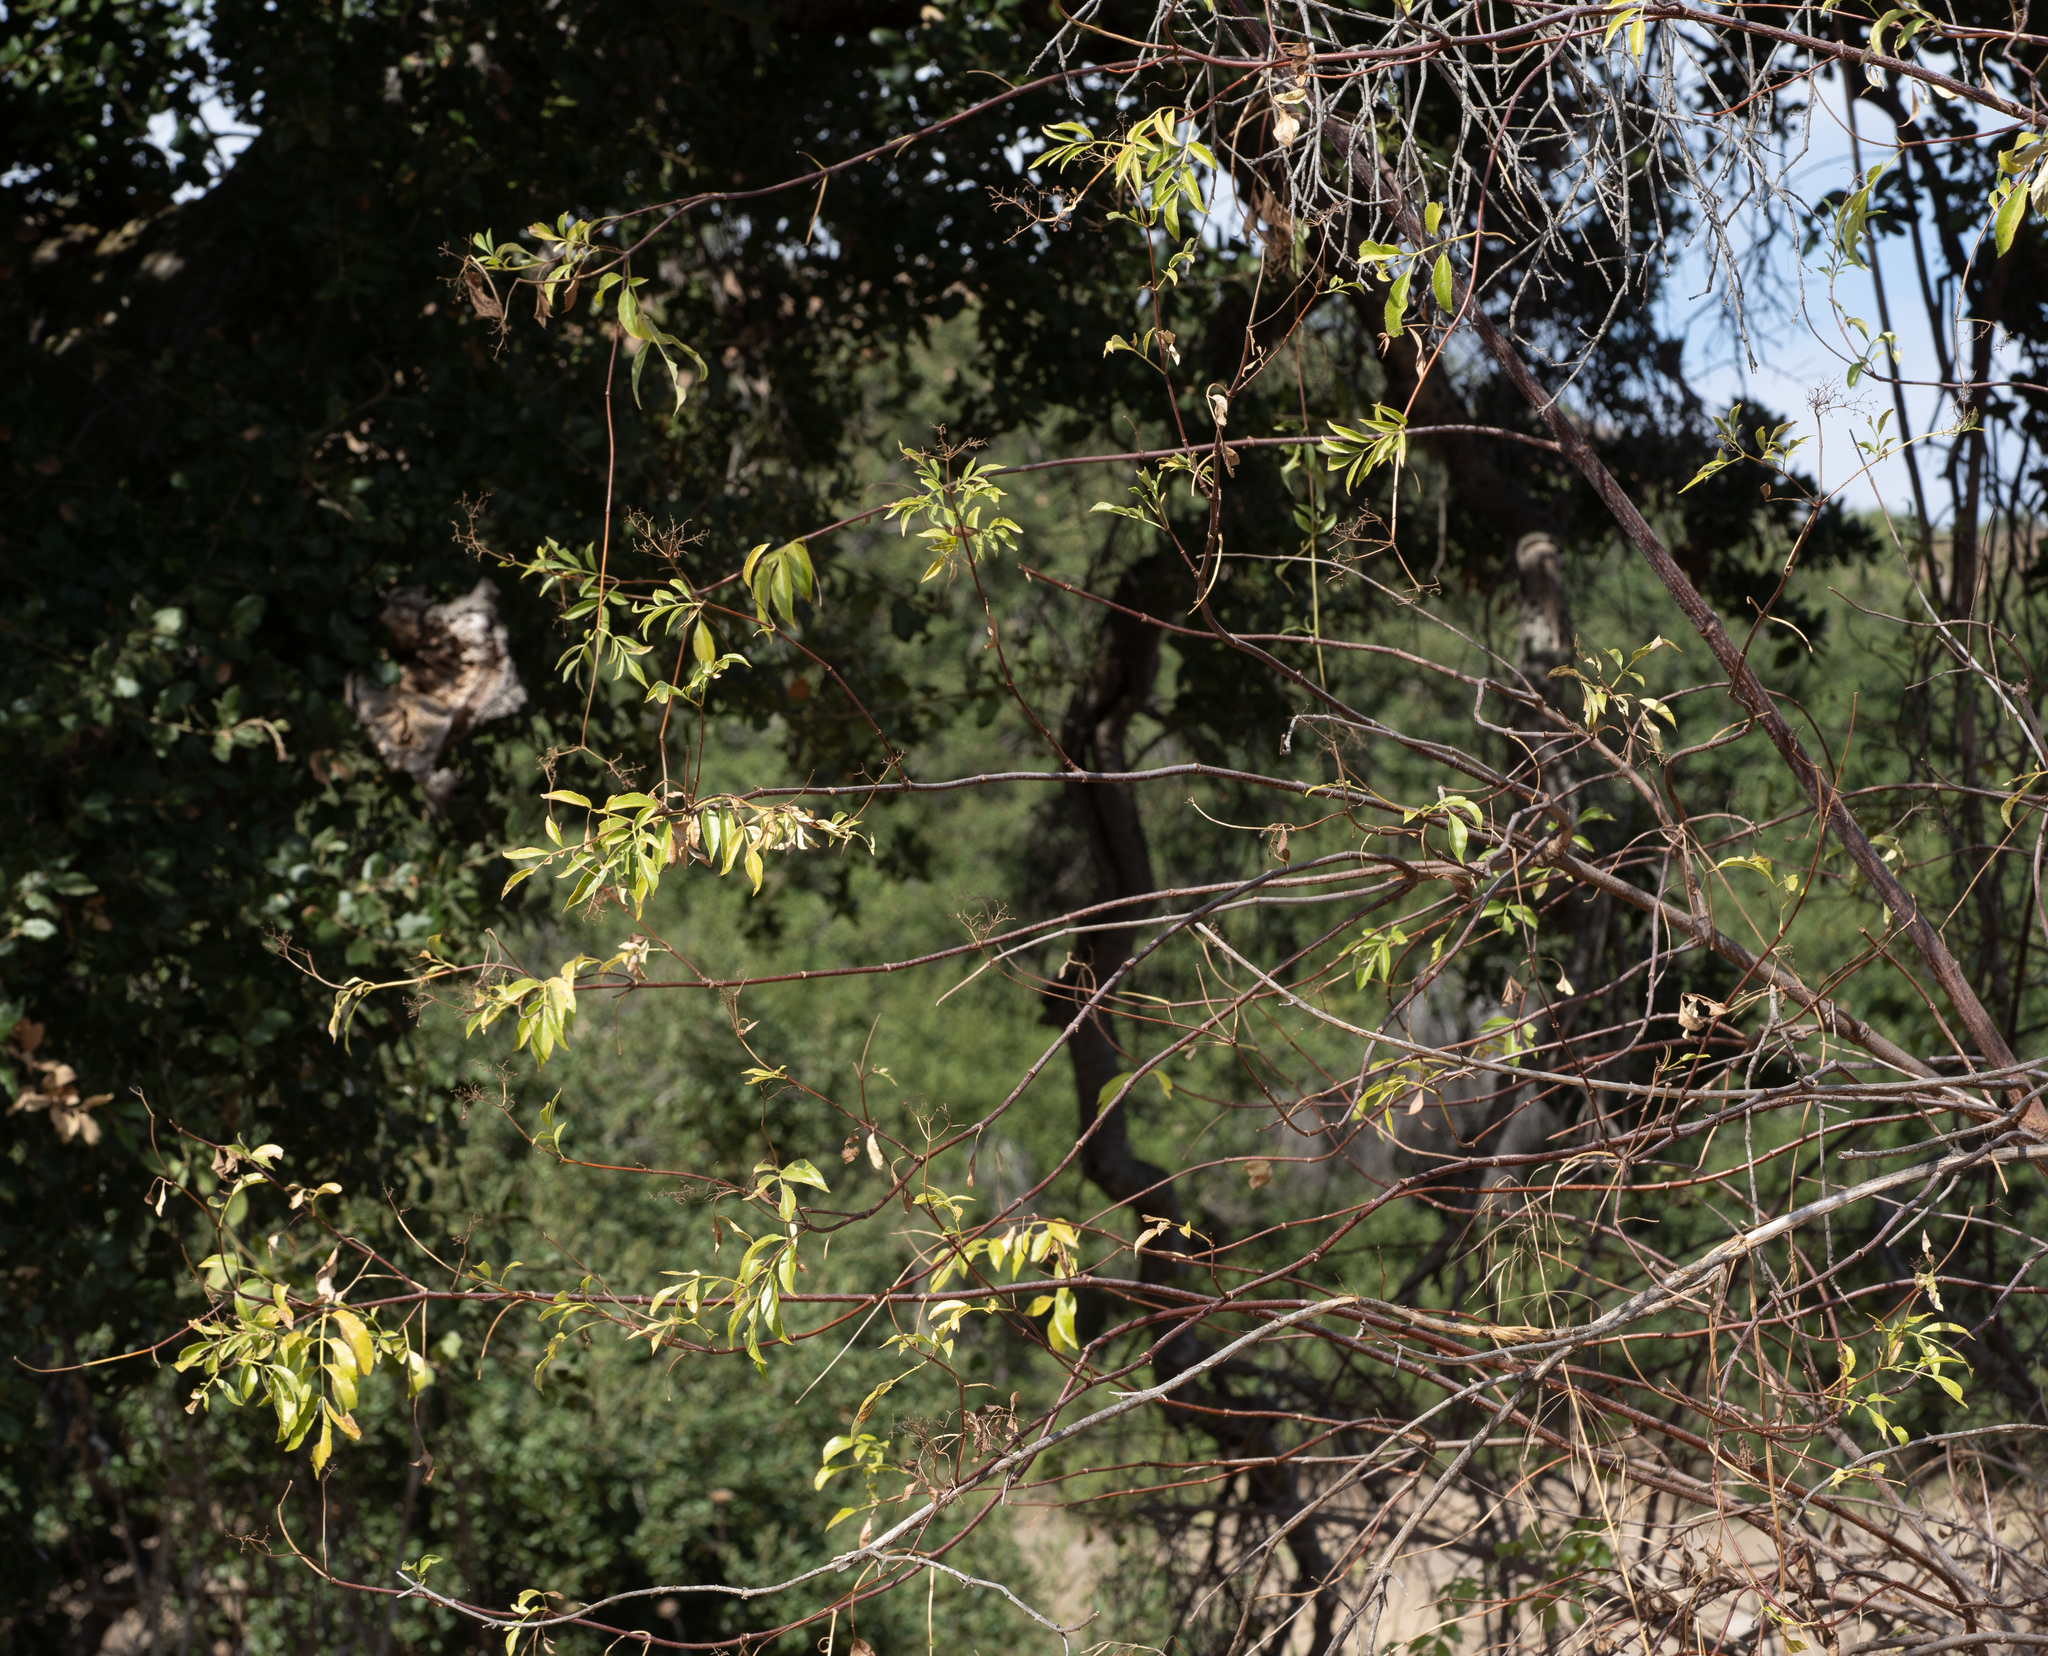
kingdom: Plantae
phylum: Tracheophyta
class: Magnoliopsida
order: Dipsacales
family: Viburnaceae
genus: Sambucus
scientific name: Sambucus cerulea
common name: Blue elder
